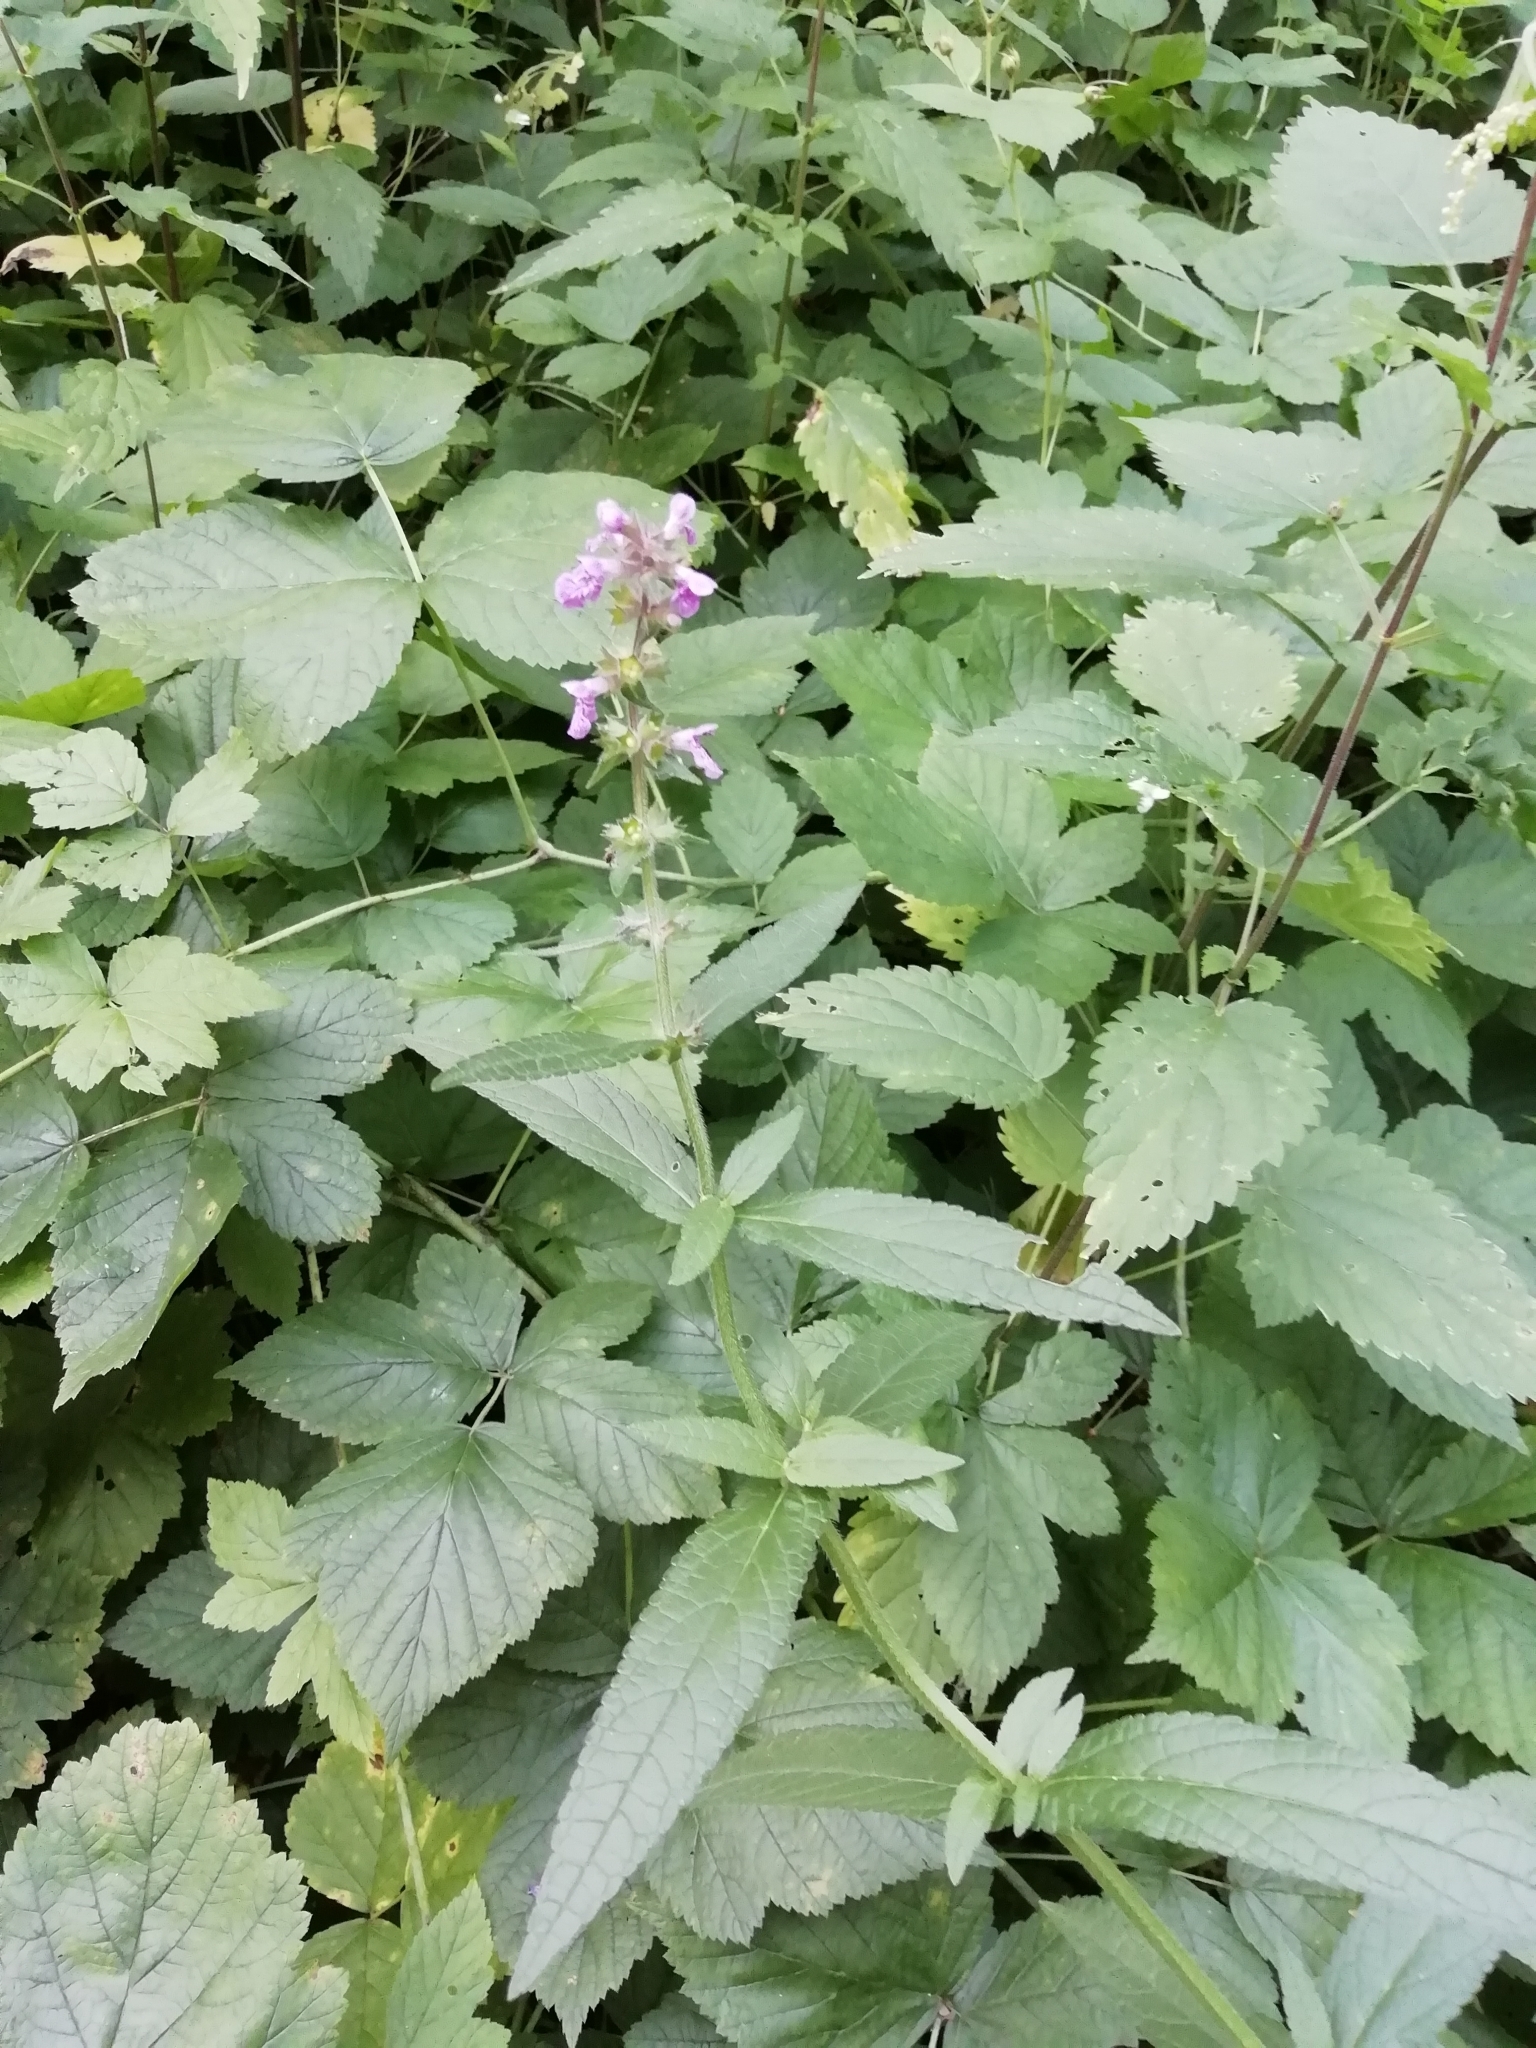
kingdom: Plantae
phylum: Tracheophyta
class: Magnoliopsida
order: Lamiales
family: Lamiaceae
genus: Stachys
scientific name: Stachys palustris
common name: Marsh woundwort
